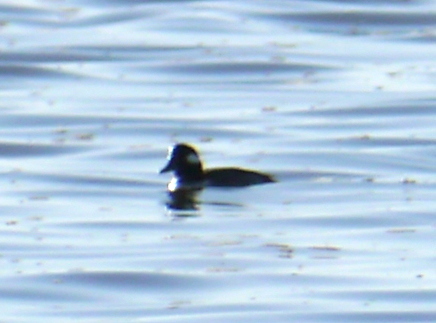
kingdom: Animalia
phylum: Chordata
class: Aves
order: Anseriformes
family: Anatidae
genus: Bucephala
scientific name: Bucephala albeola
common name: Bufflehead
